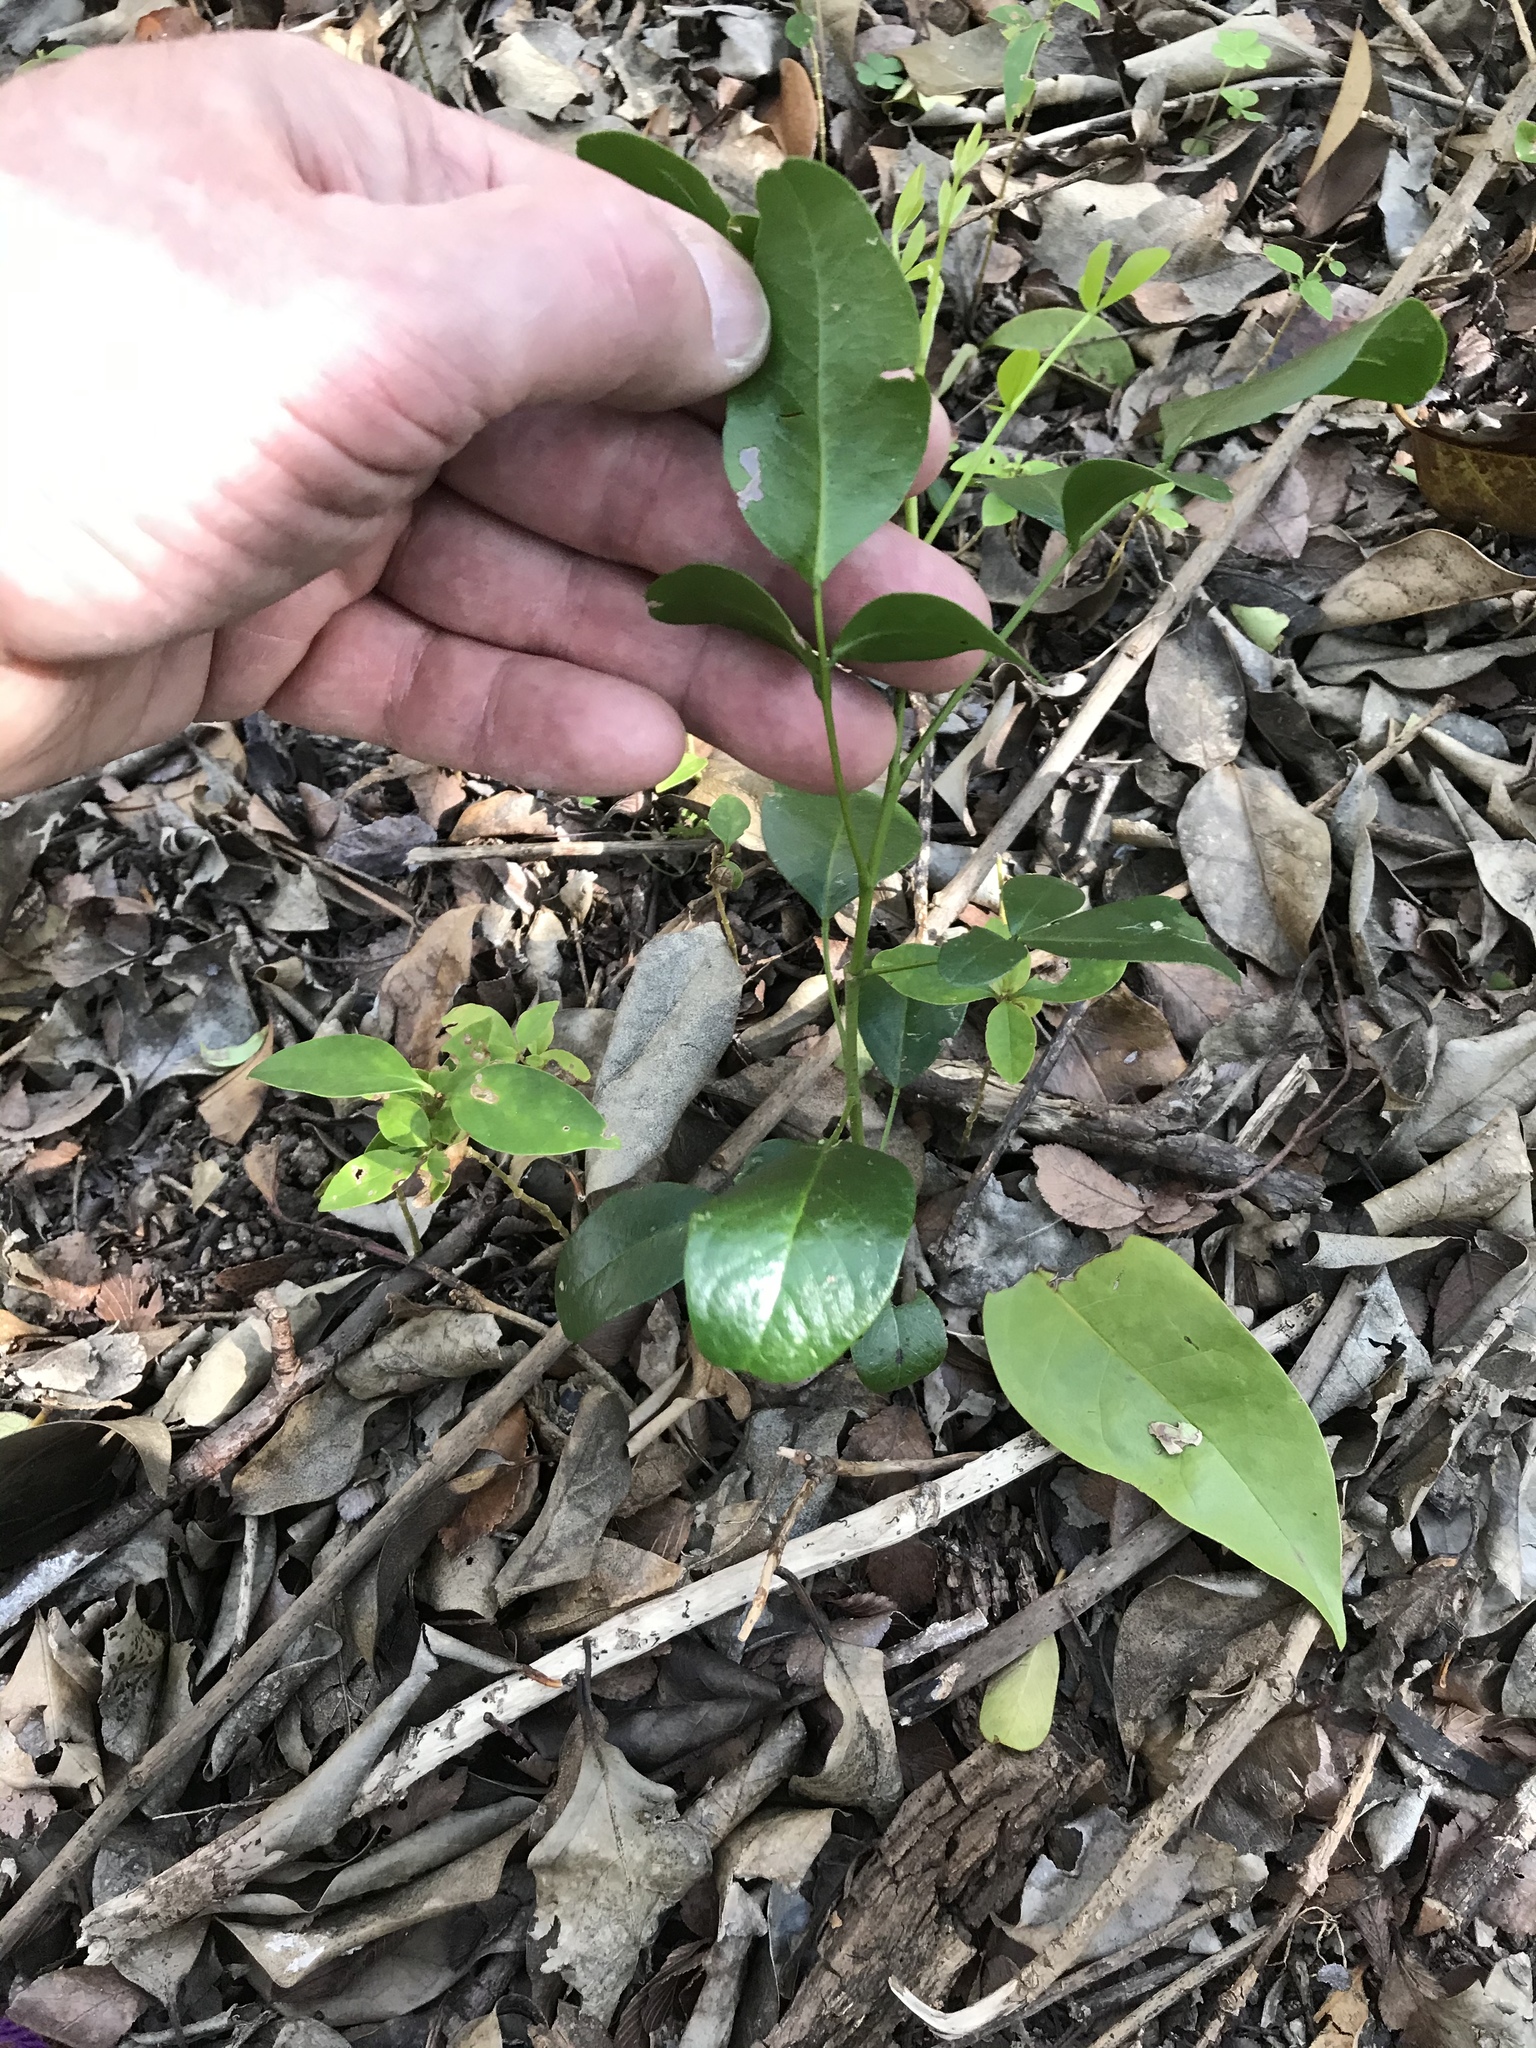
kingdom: Plantae
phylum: Tracheophyta
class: Magnoliopsida
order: Fabales
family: Fabaceae
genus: Dermatophyllum
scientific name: Dermatophyllum secundiflorum
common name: Texas-mountain-laurel
